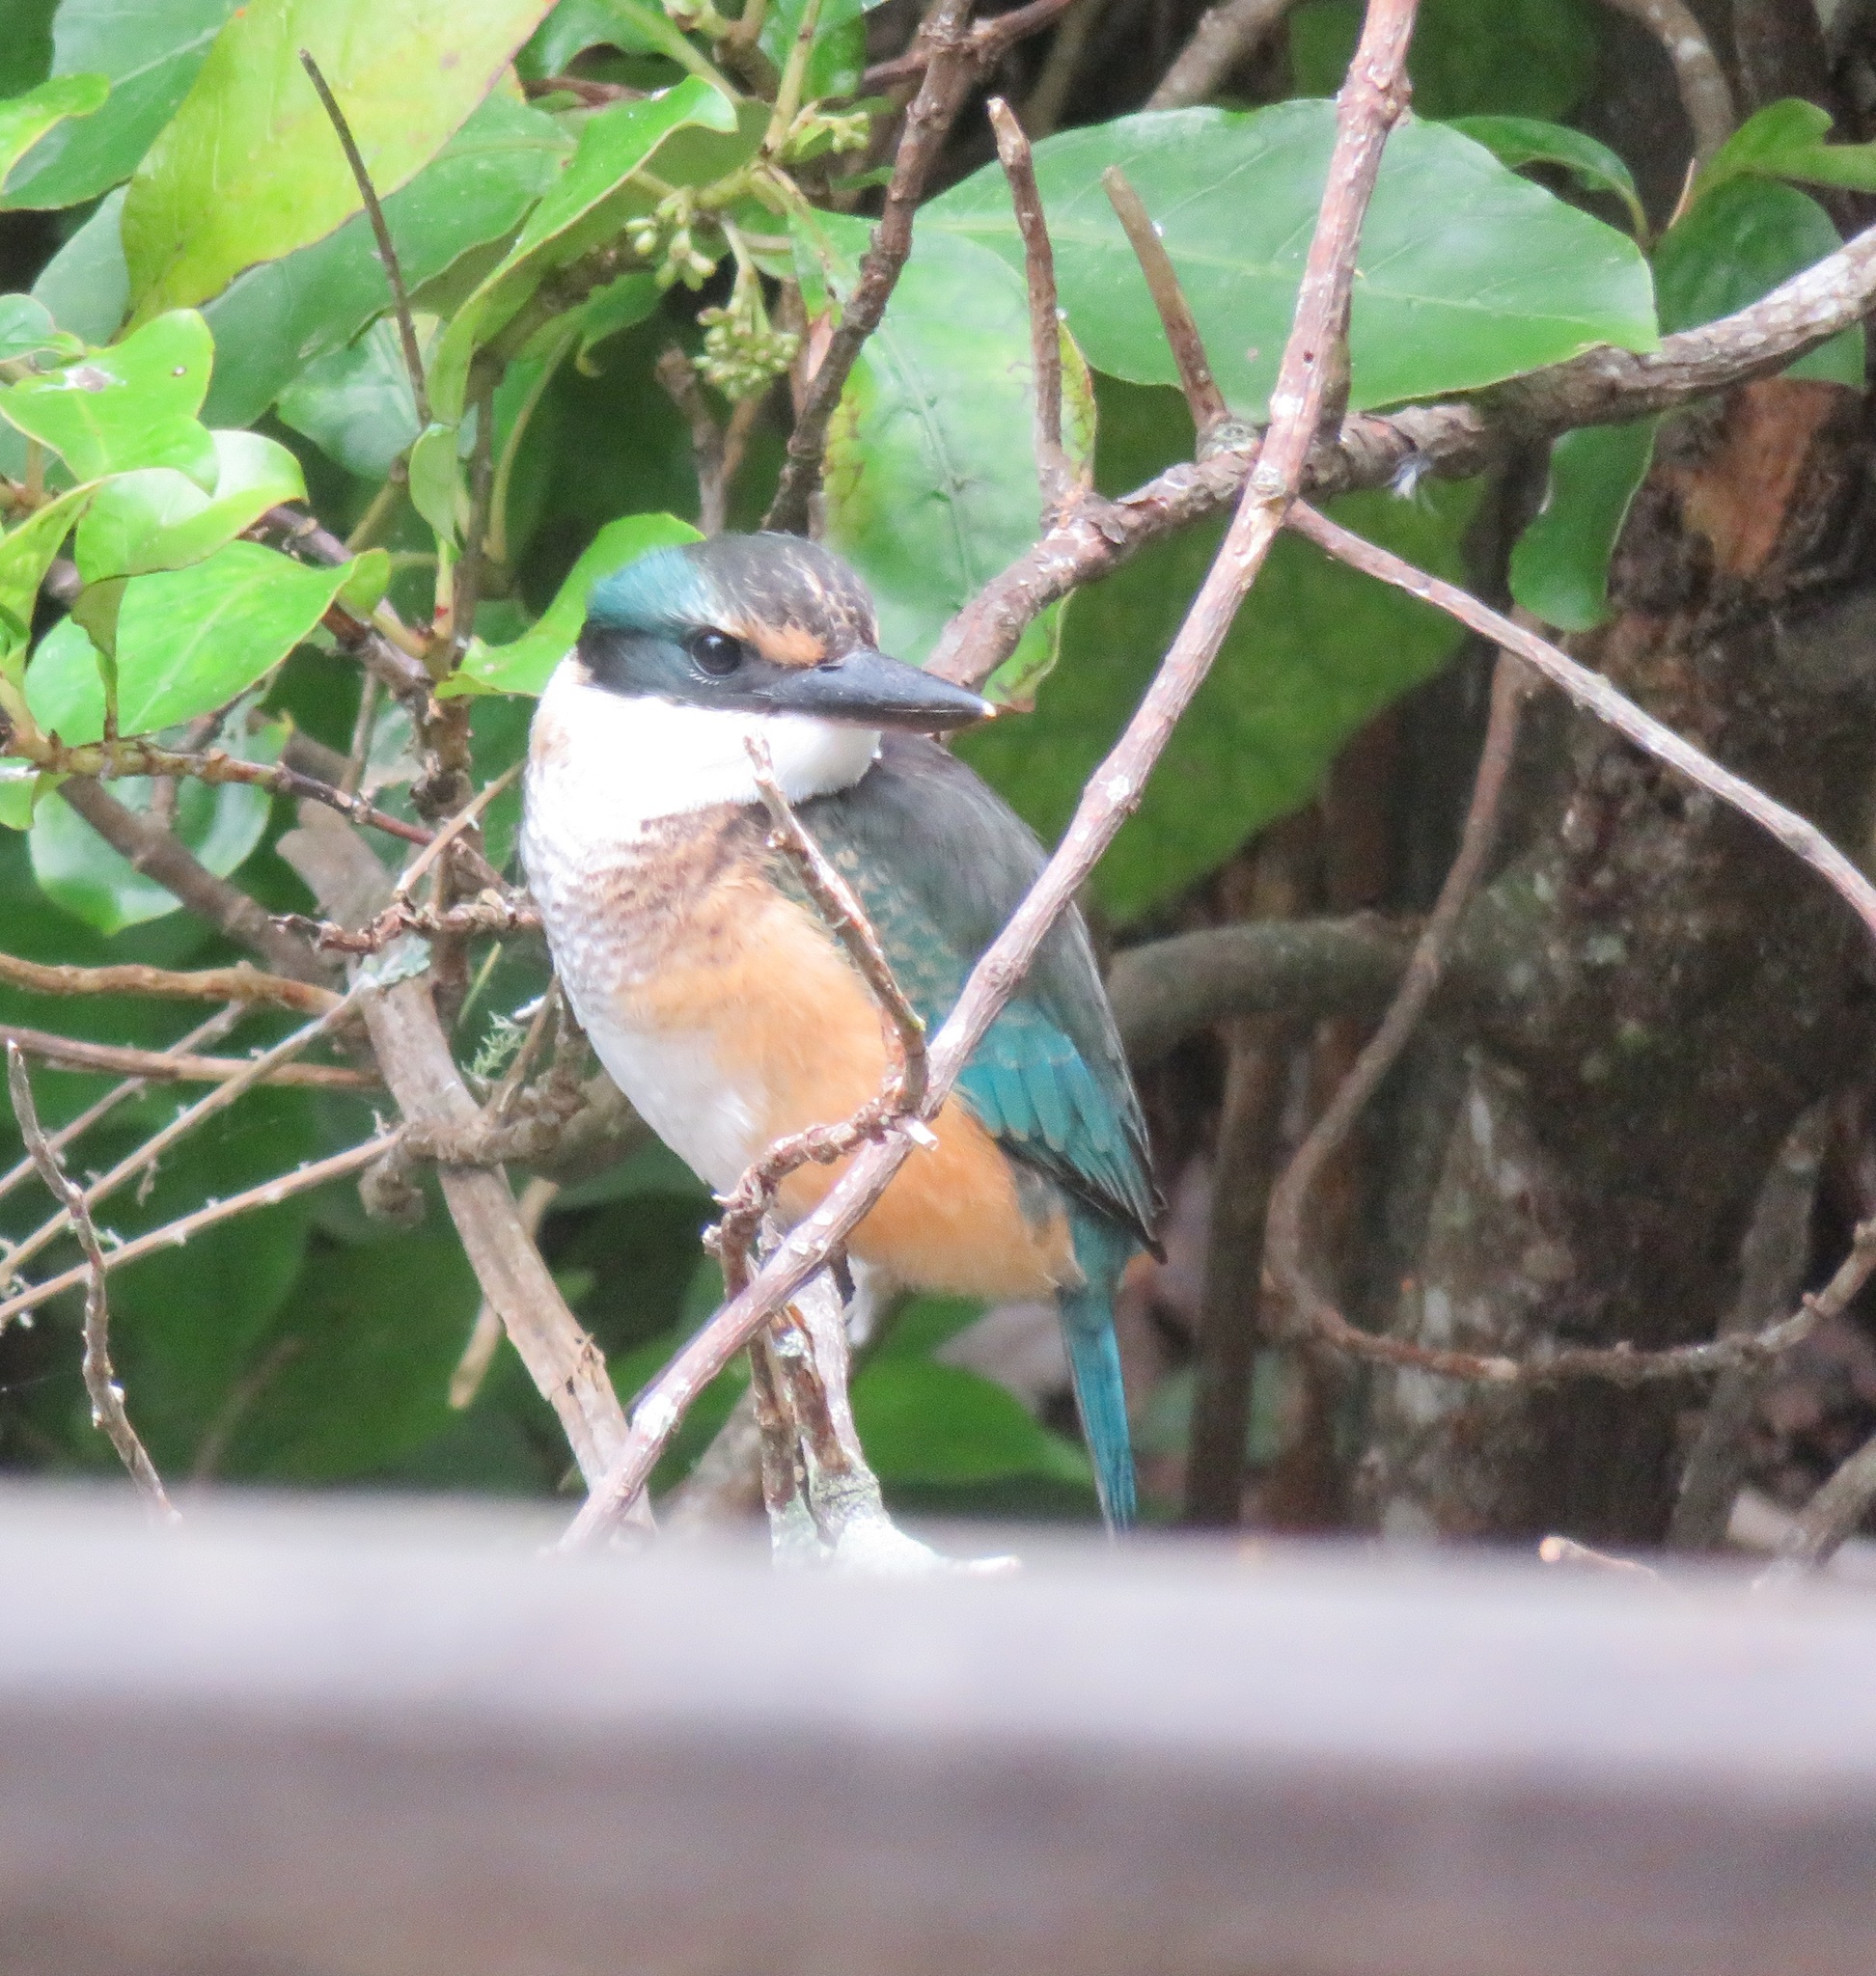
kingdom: Animalia
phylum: Chordata
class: Aves
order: Coraciiformes
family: Alcedinidae
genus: Todiramphus
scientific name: Todiramphus sanctus
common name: Sacred kingfisher
